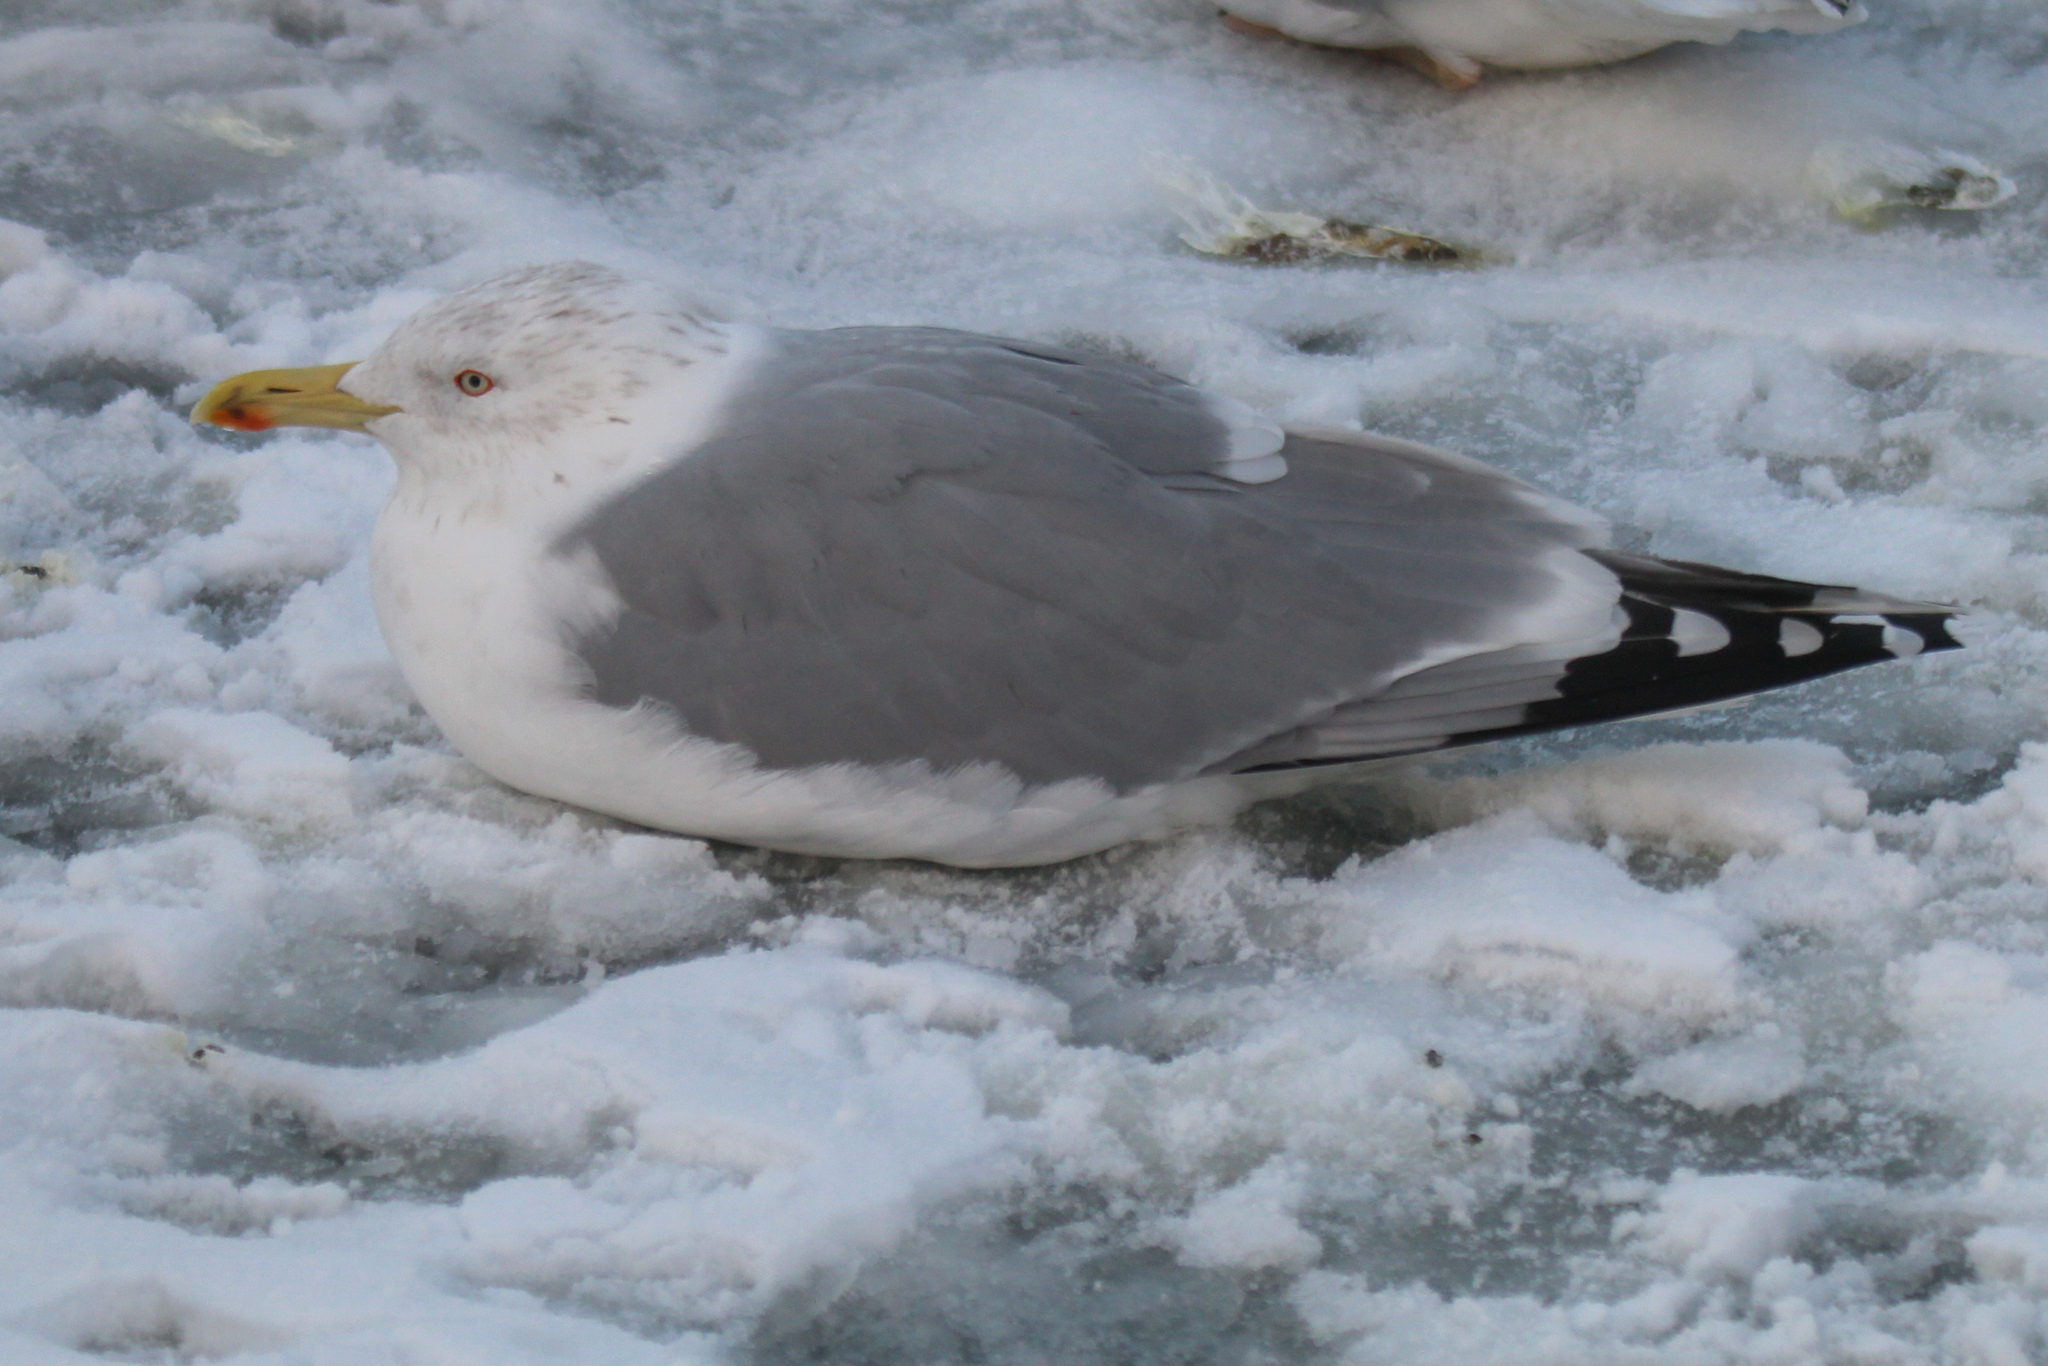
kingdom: Animalia
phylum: Chordata
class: Aves
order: Charadriiformes
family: Laridae
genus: Larus
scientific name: Larus argentatus
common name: Herring gull
